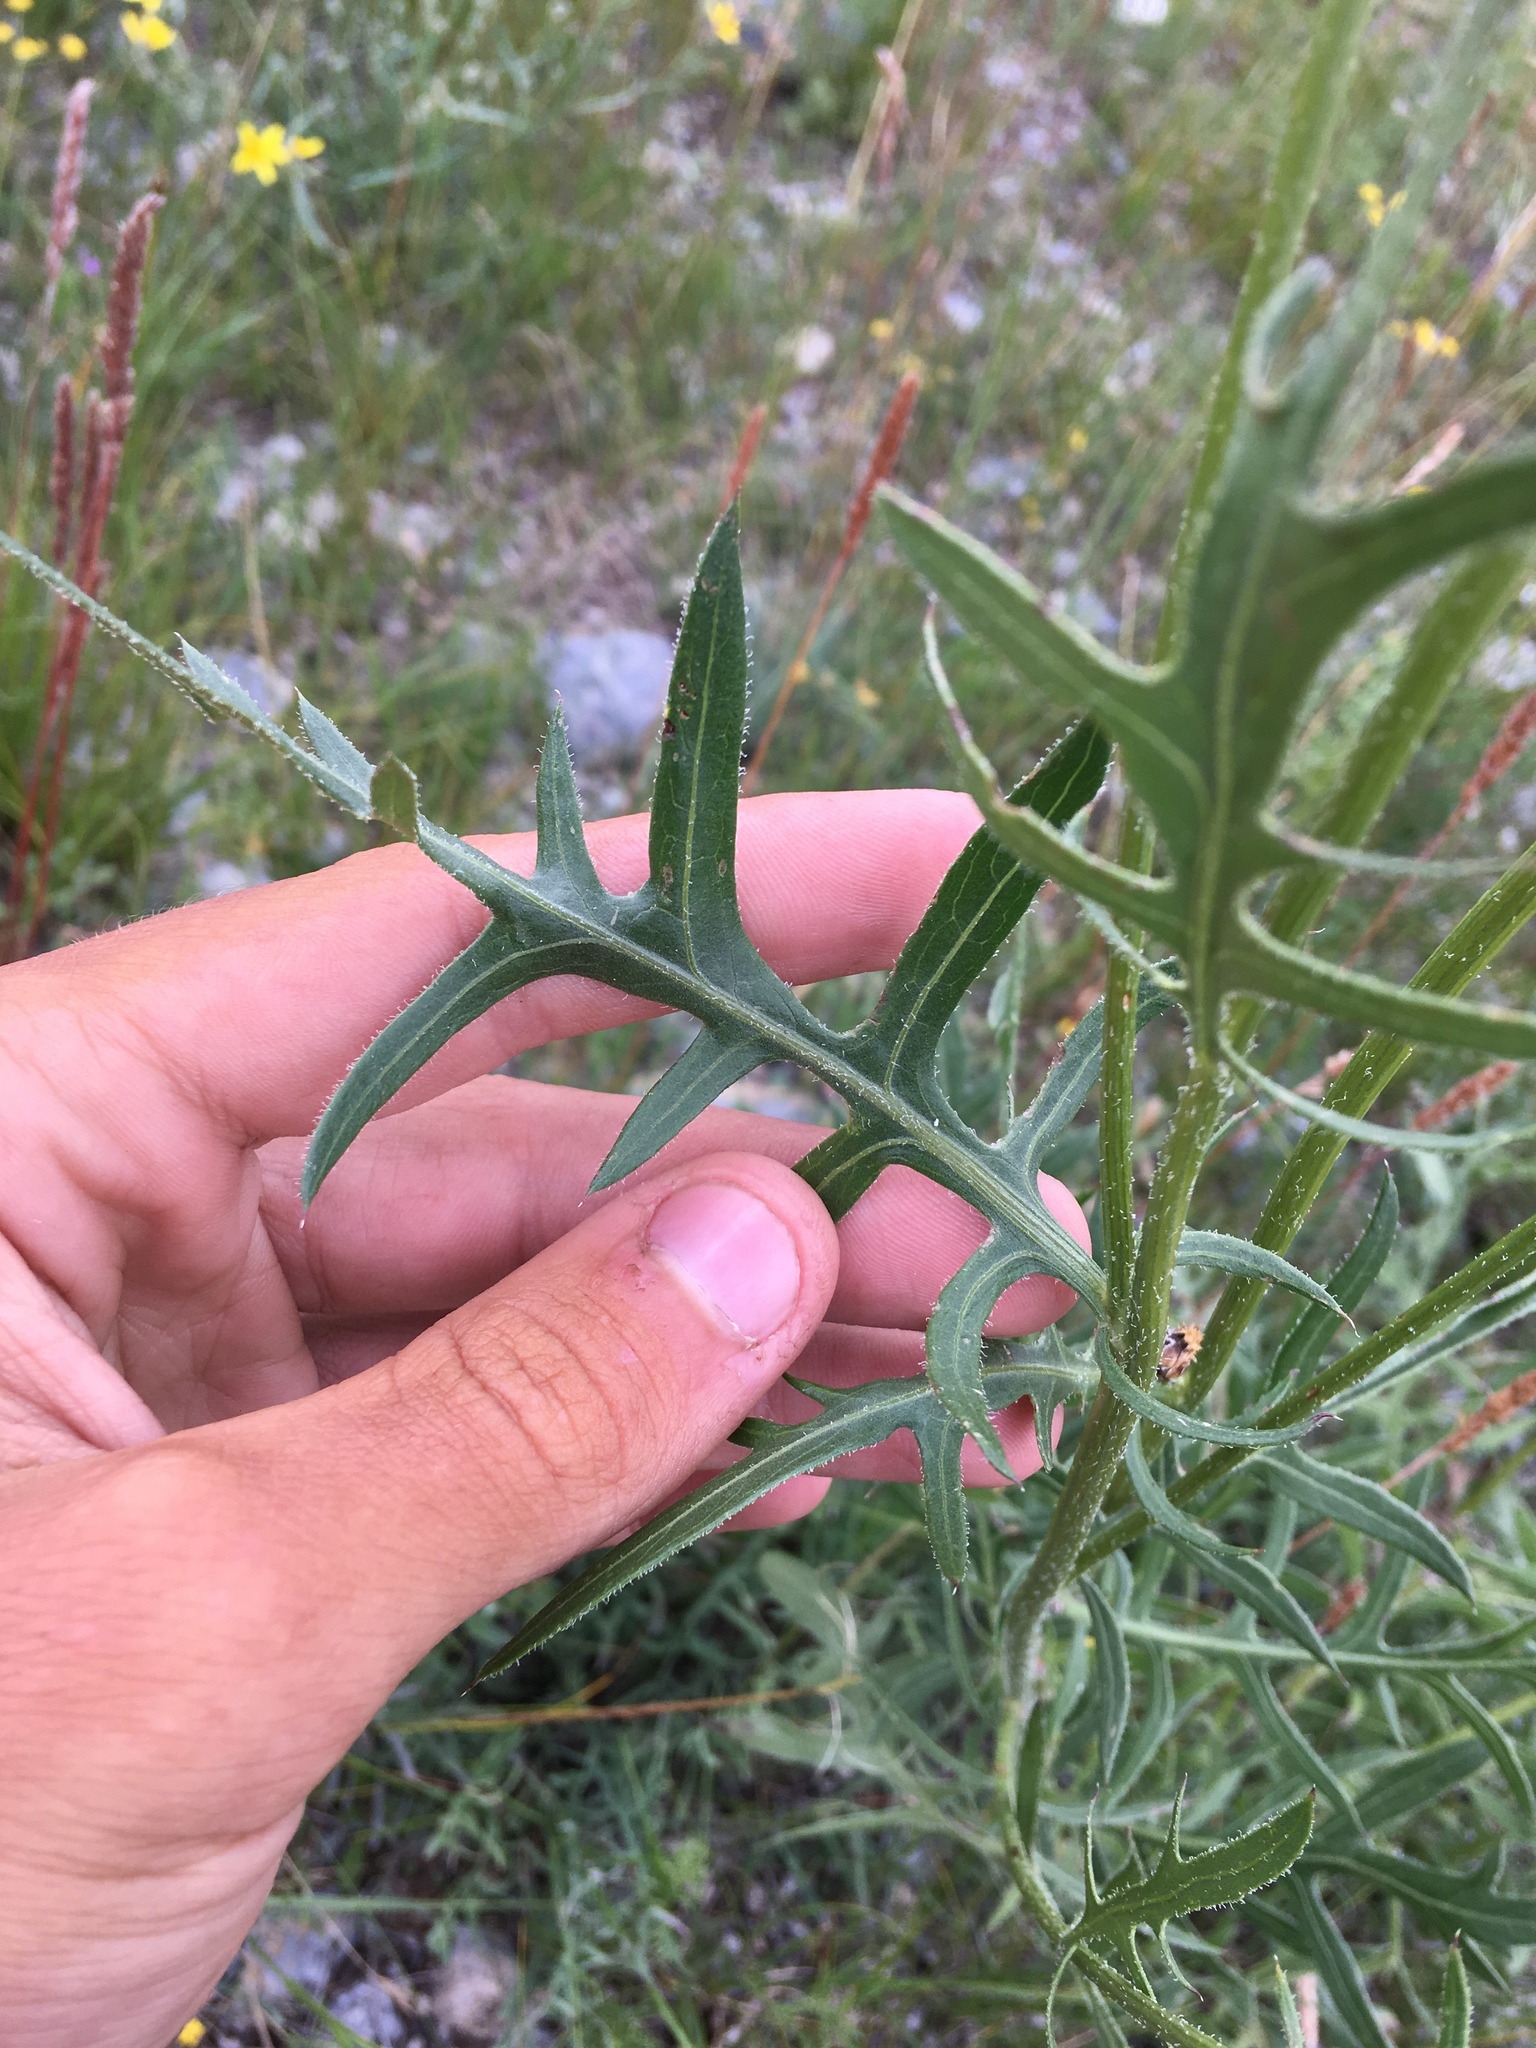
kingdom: Plantae
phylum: Tracheophyta
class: Magnoliopsida
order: Asterales
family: Asteraceae
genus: Klasea
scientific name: Klasea centauroides
